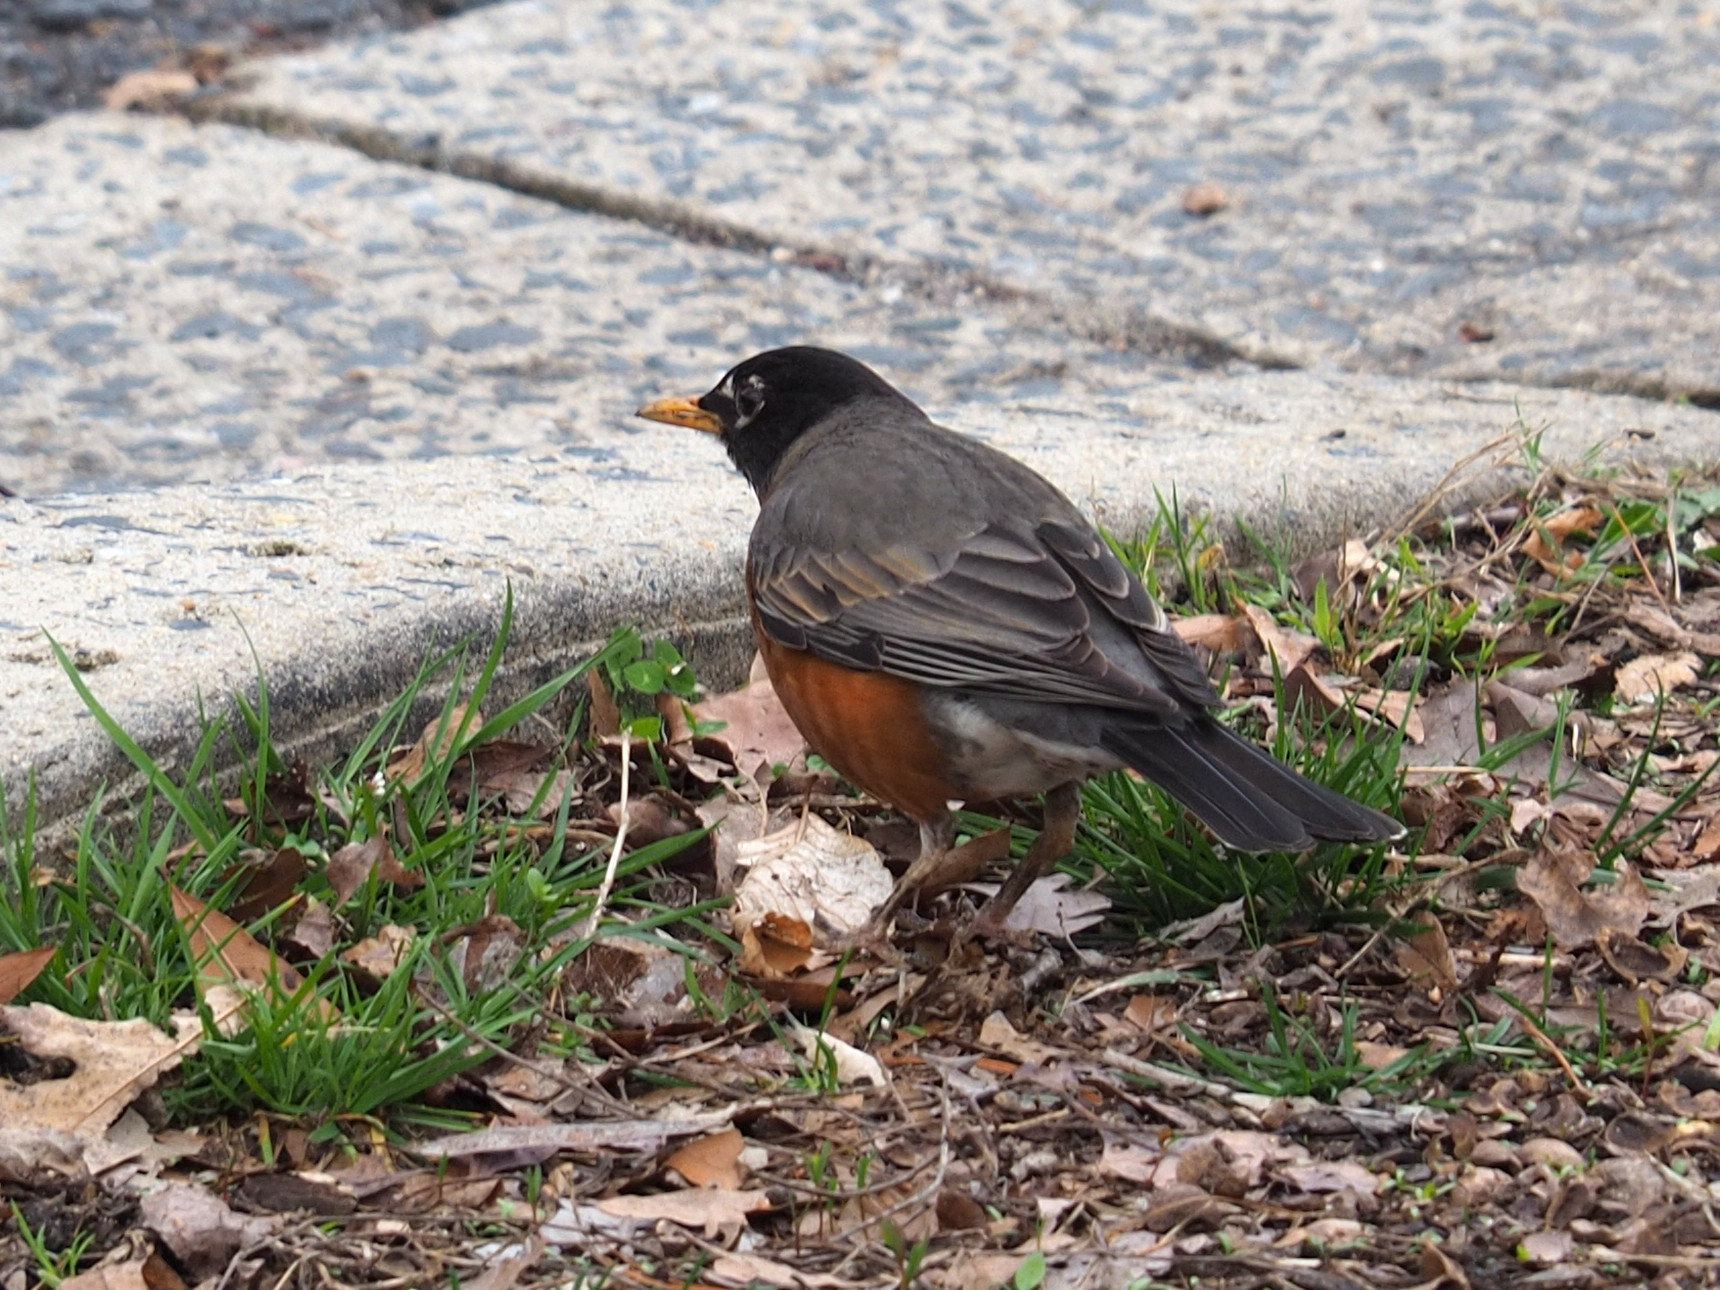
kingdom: Animalia
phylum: Chordata
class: Aves
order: Passeriformes
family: Turdidae
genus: Turdus
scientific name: Turdus migratorius
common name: American robin
